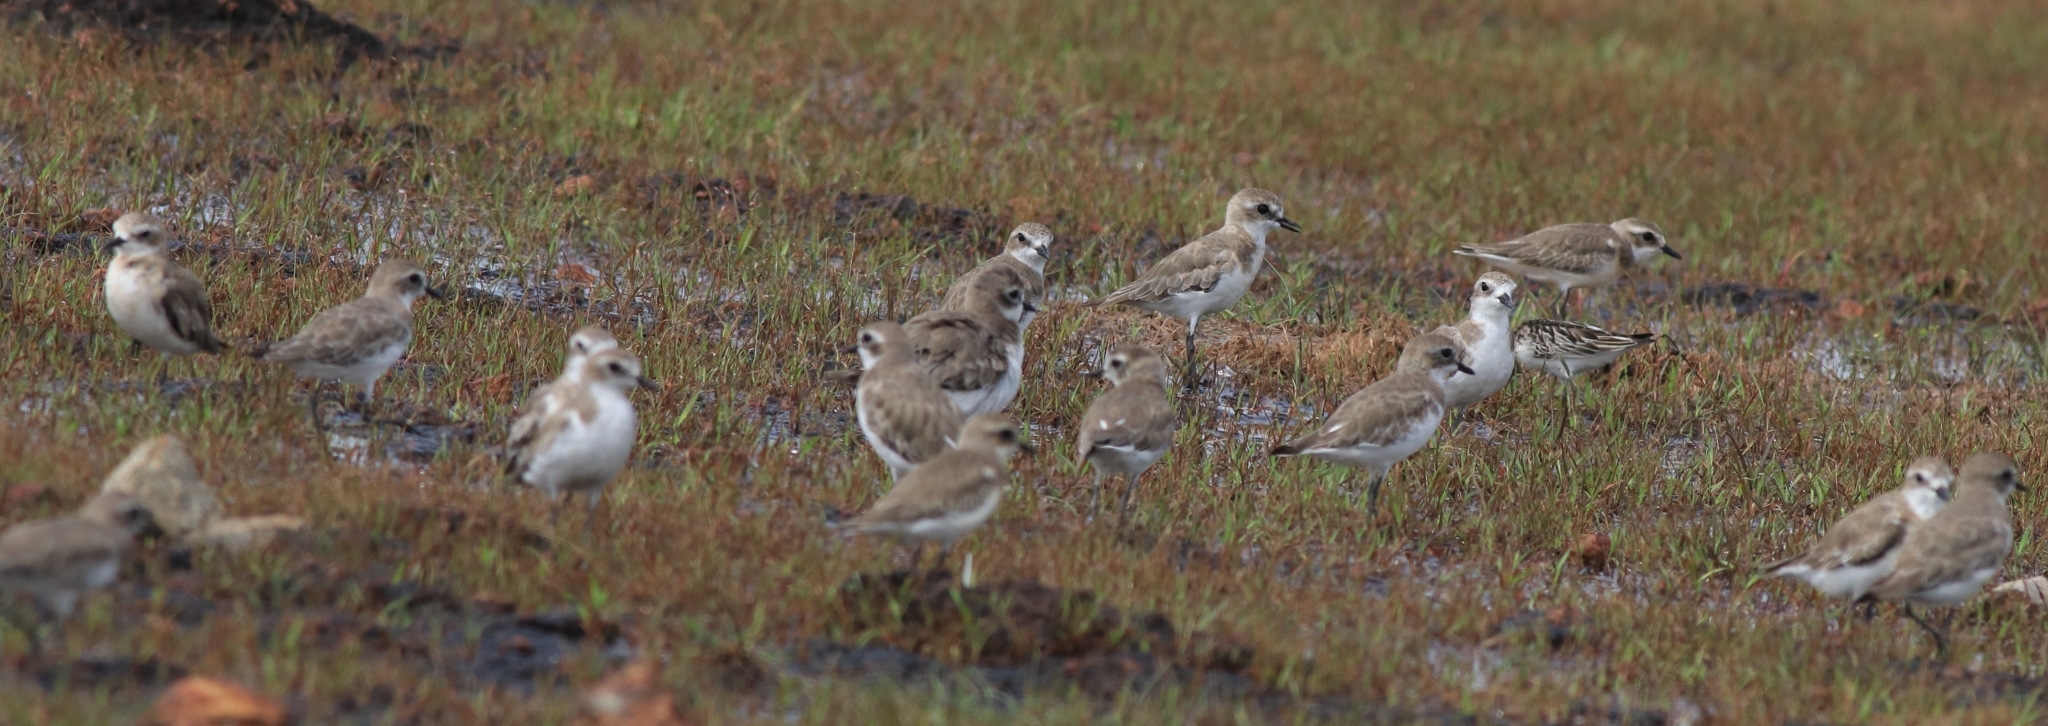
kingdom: Animalia
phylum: Chordata
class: Aves
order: Charadriiformes
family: Charadriidae
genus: Anarhynchus
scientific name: Anarhynchus
